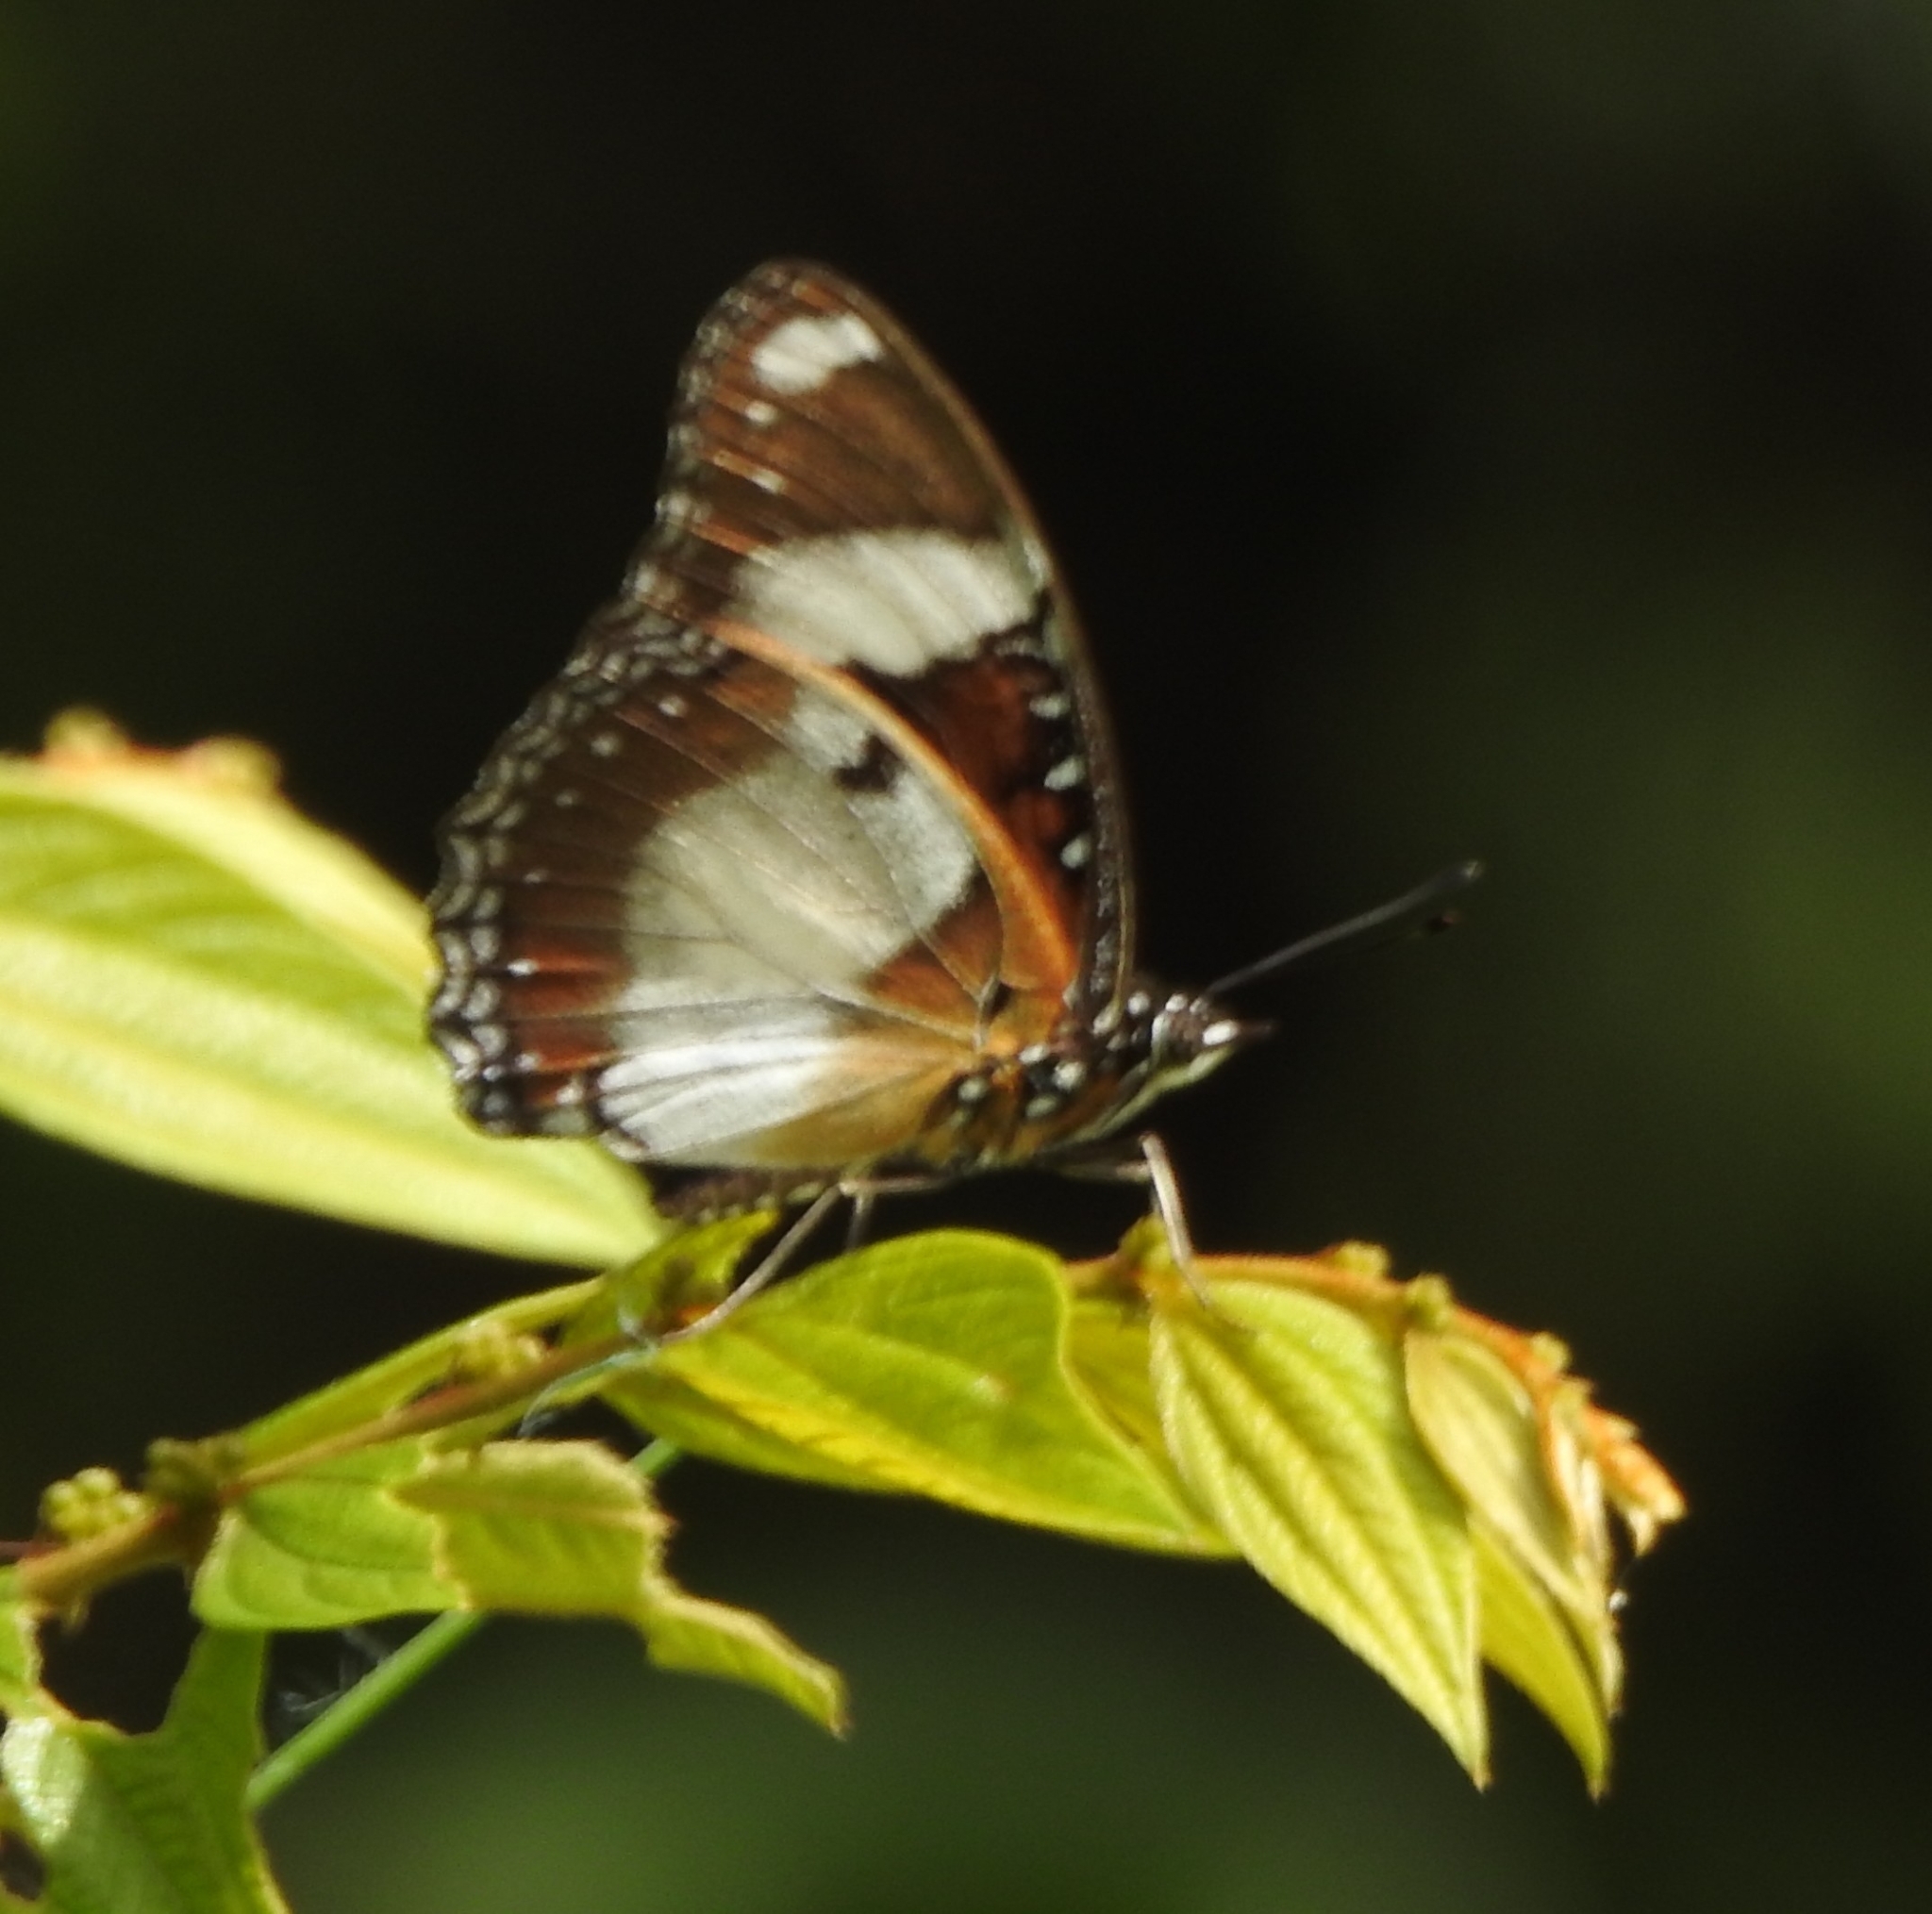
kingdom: Animalia
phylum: Arthropoda
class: Insecta
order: Lepidoptera
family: Nymphalidae
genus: Hypolimnas
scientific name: Hypolimnas misippus
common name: False plain tiger
